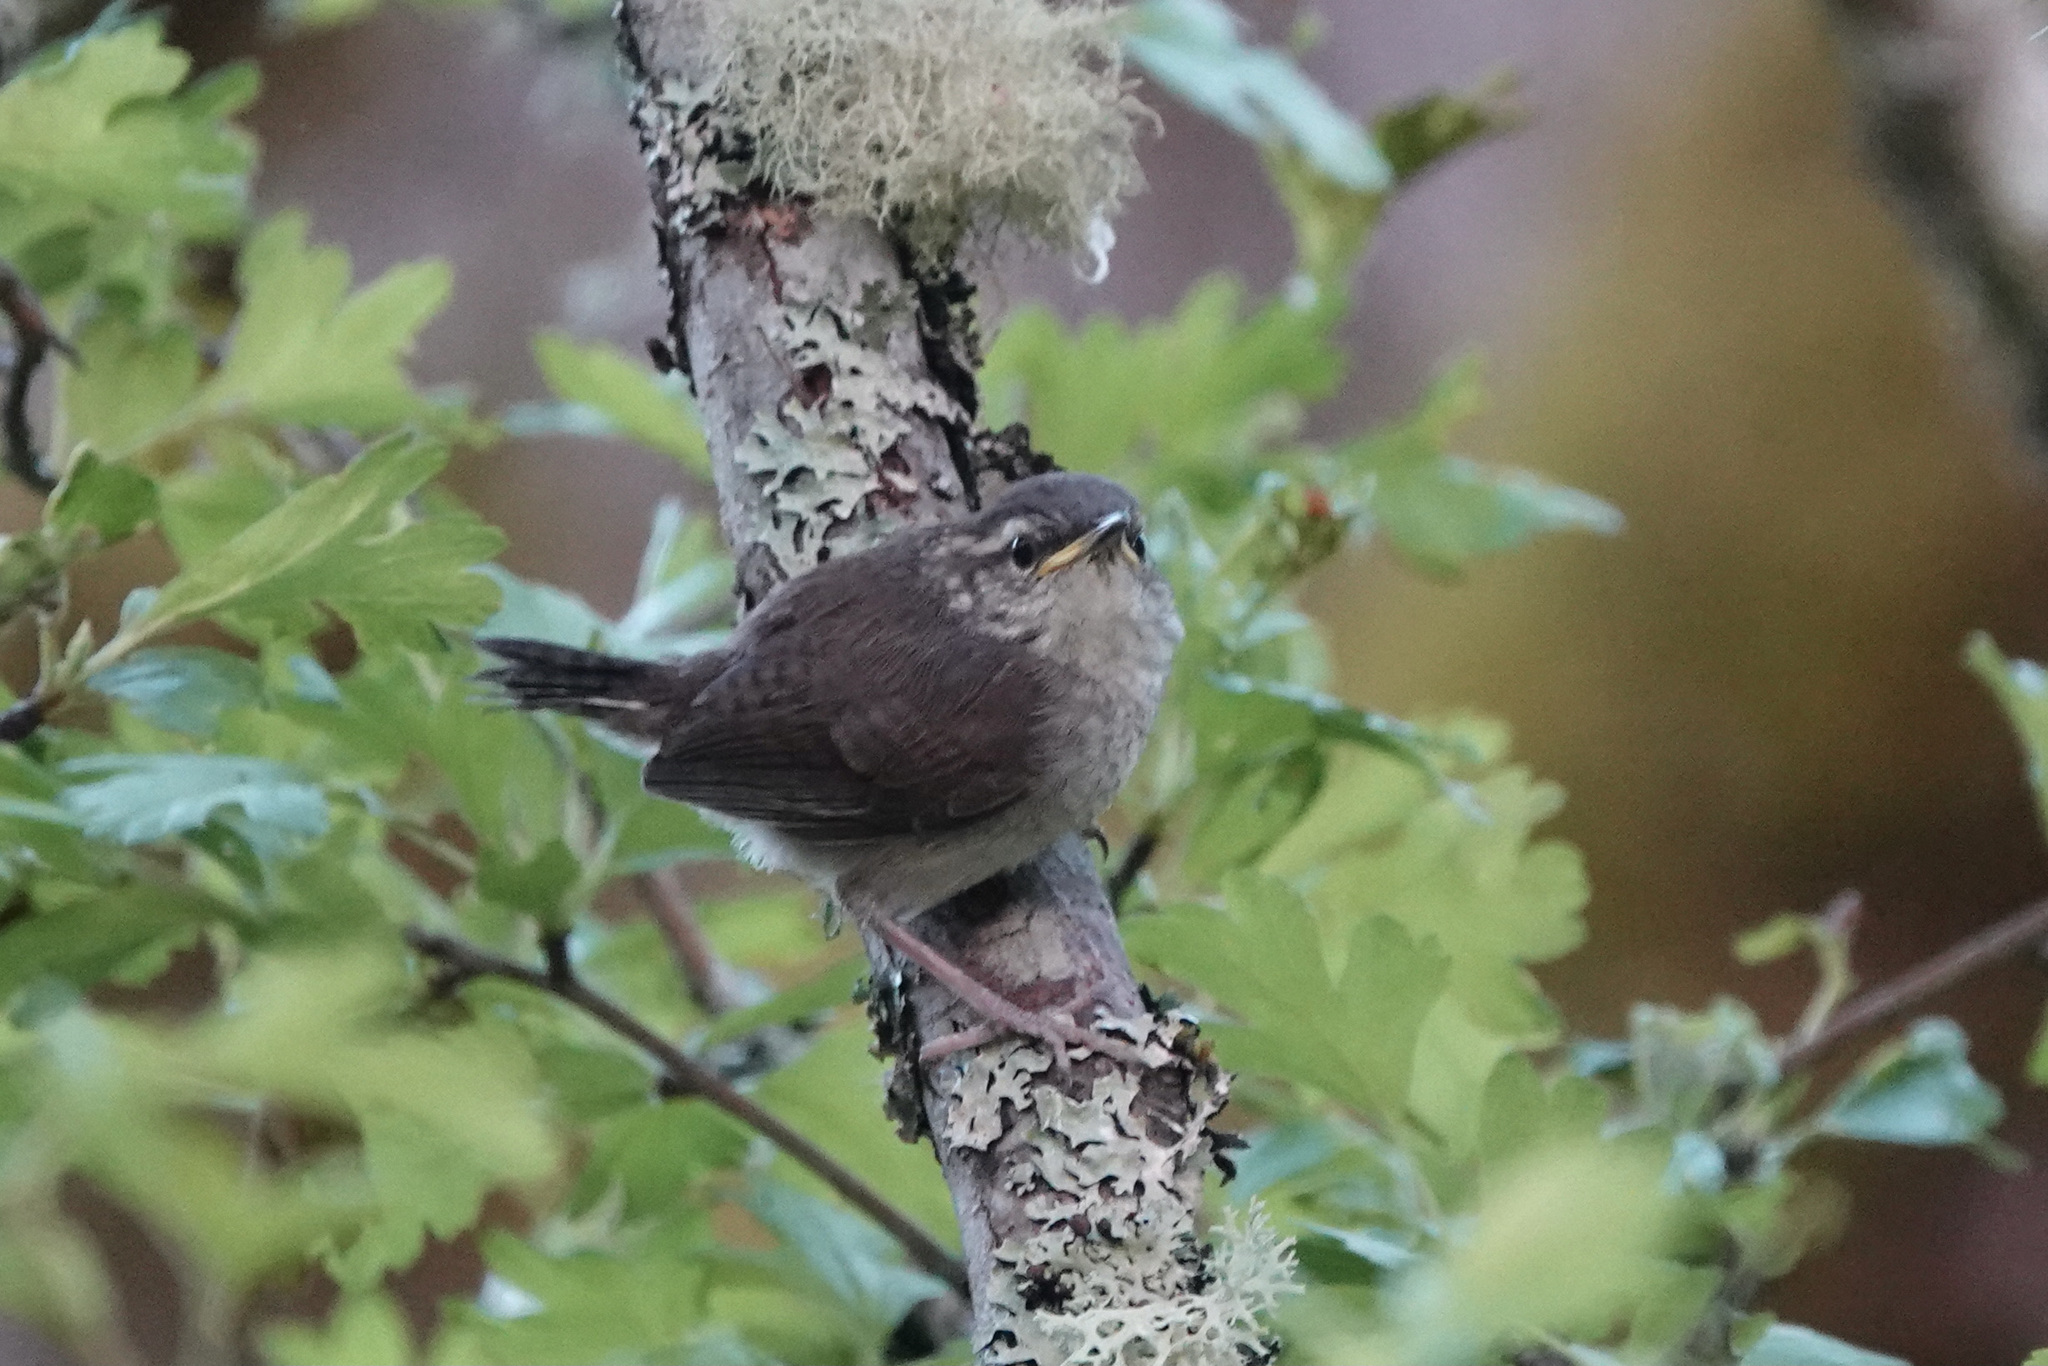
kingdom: Animalia
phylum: Chordata
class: Aves
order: Passeriformes
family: Troglodytidae
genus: Thryomanes
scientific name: Thryomanes bewickii
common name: Bewick's wren
